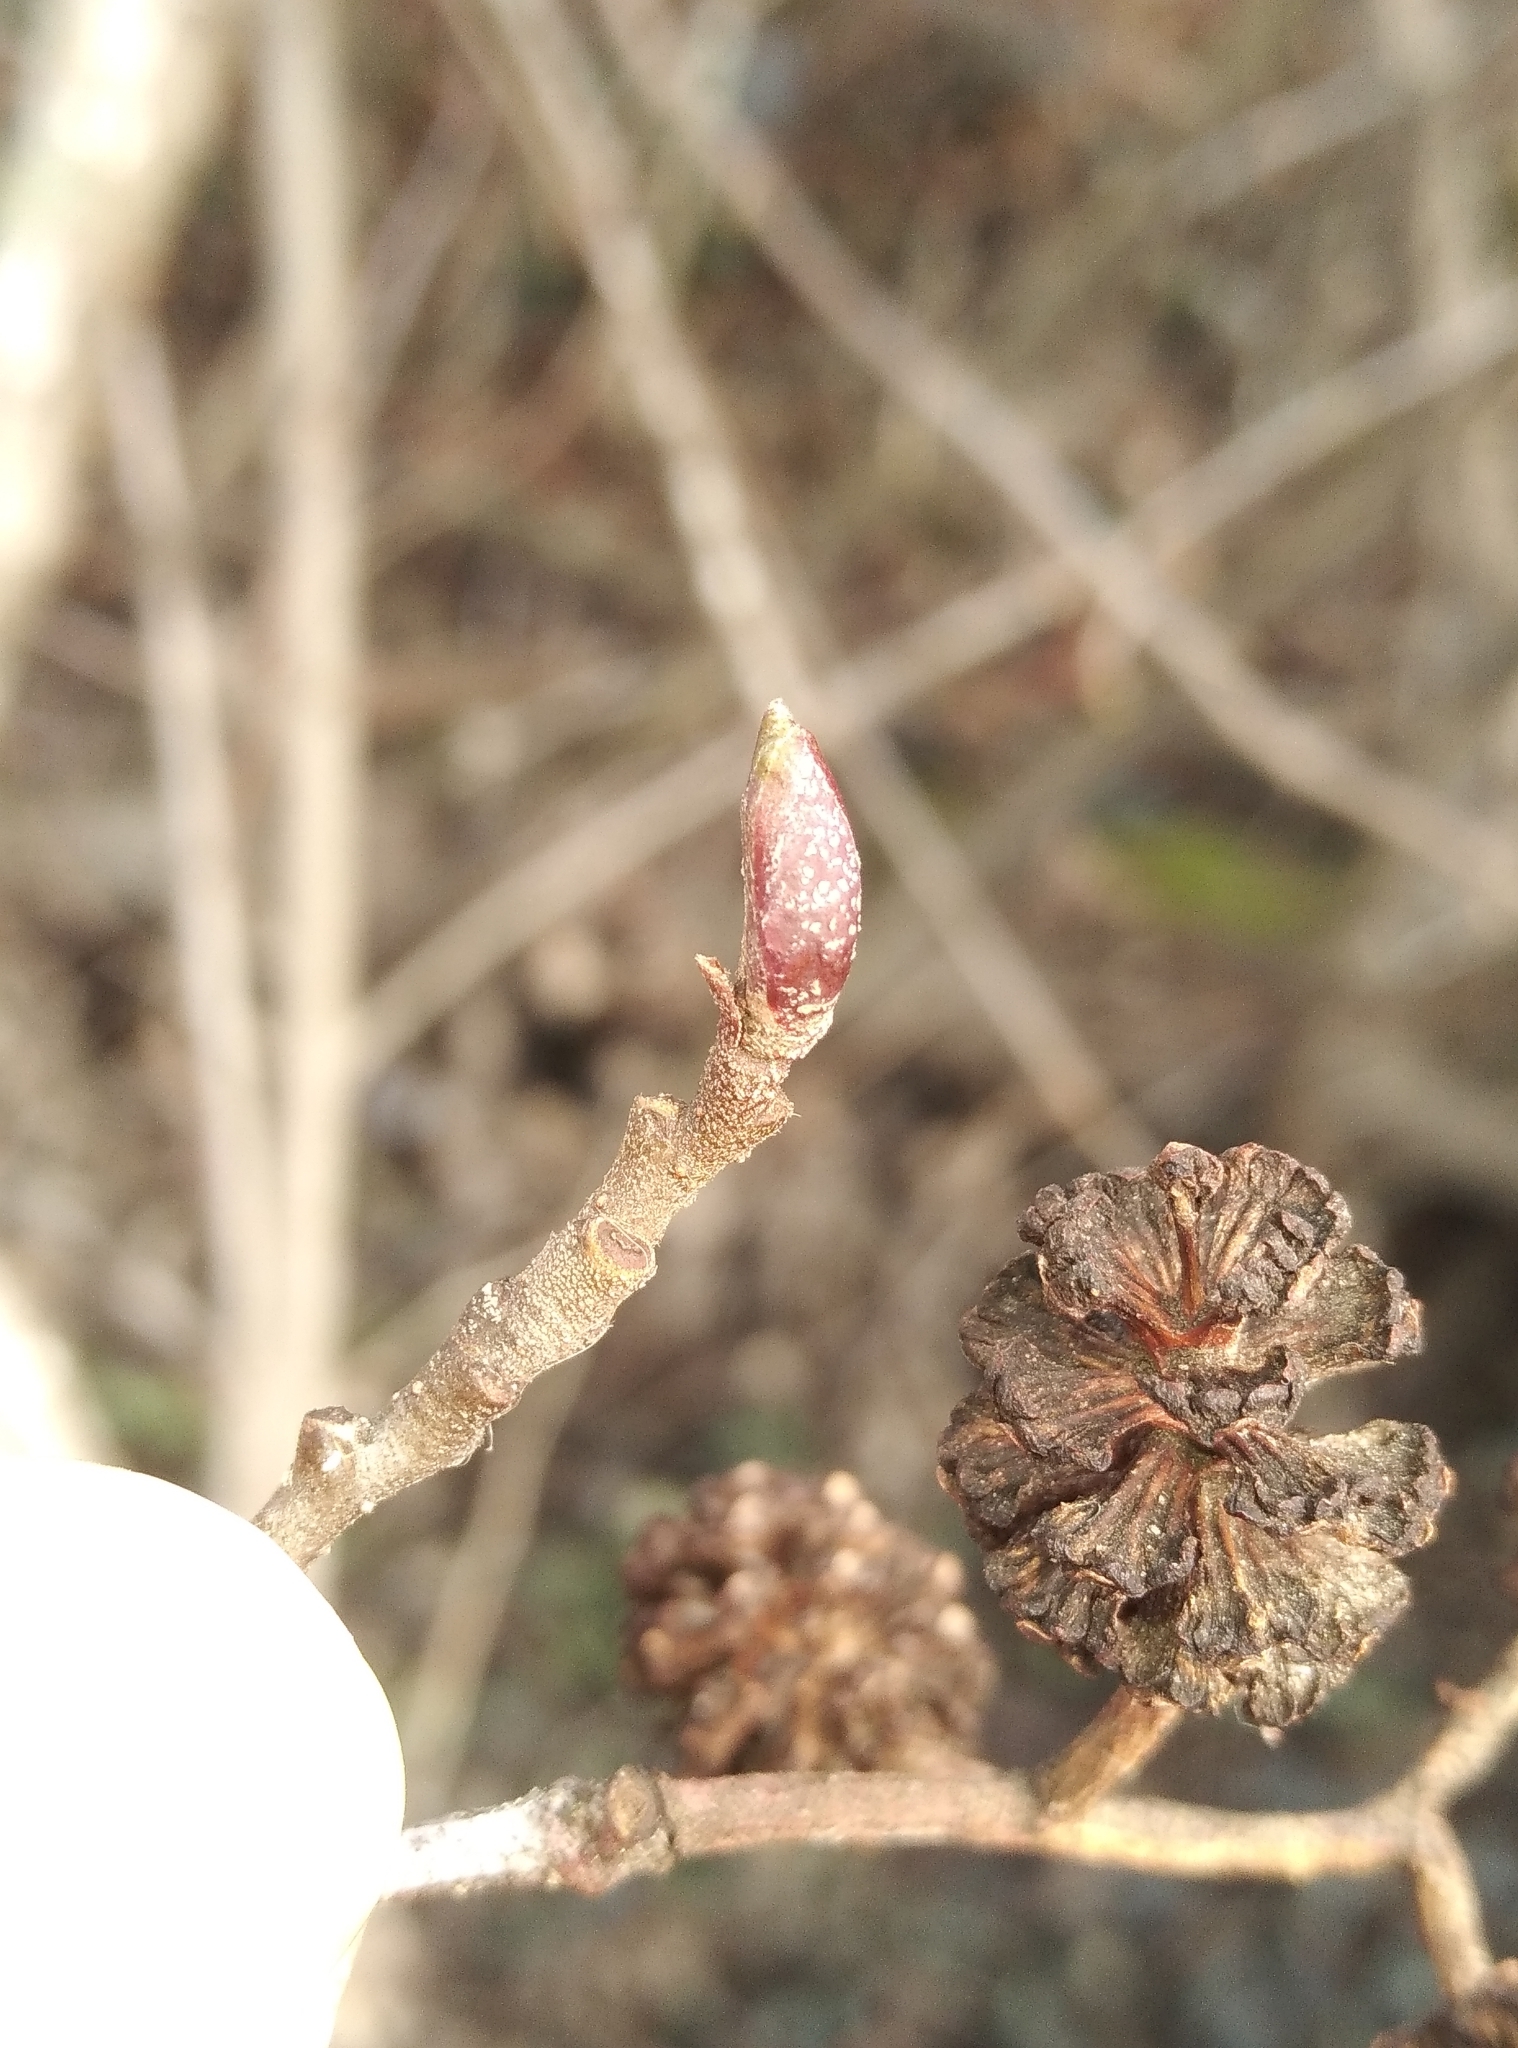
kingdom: Plantae
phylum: Tracheophyta
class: Magnoliopsida
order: Fagales
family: Betulaceae
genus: Alnus
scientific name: Alnus glutinosa
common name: Black alder
